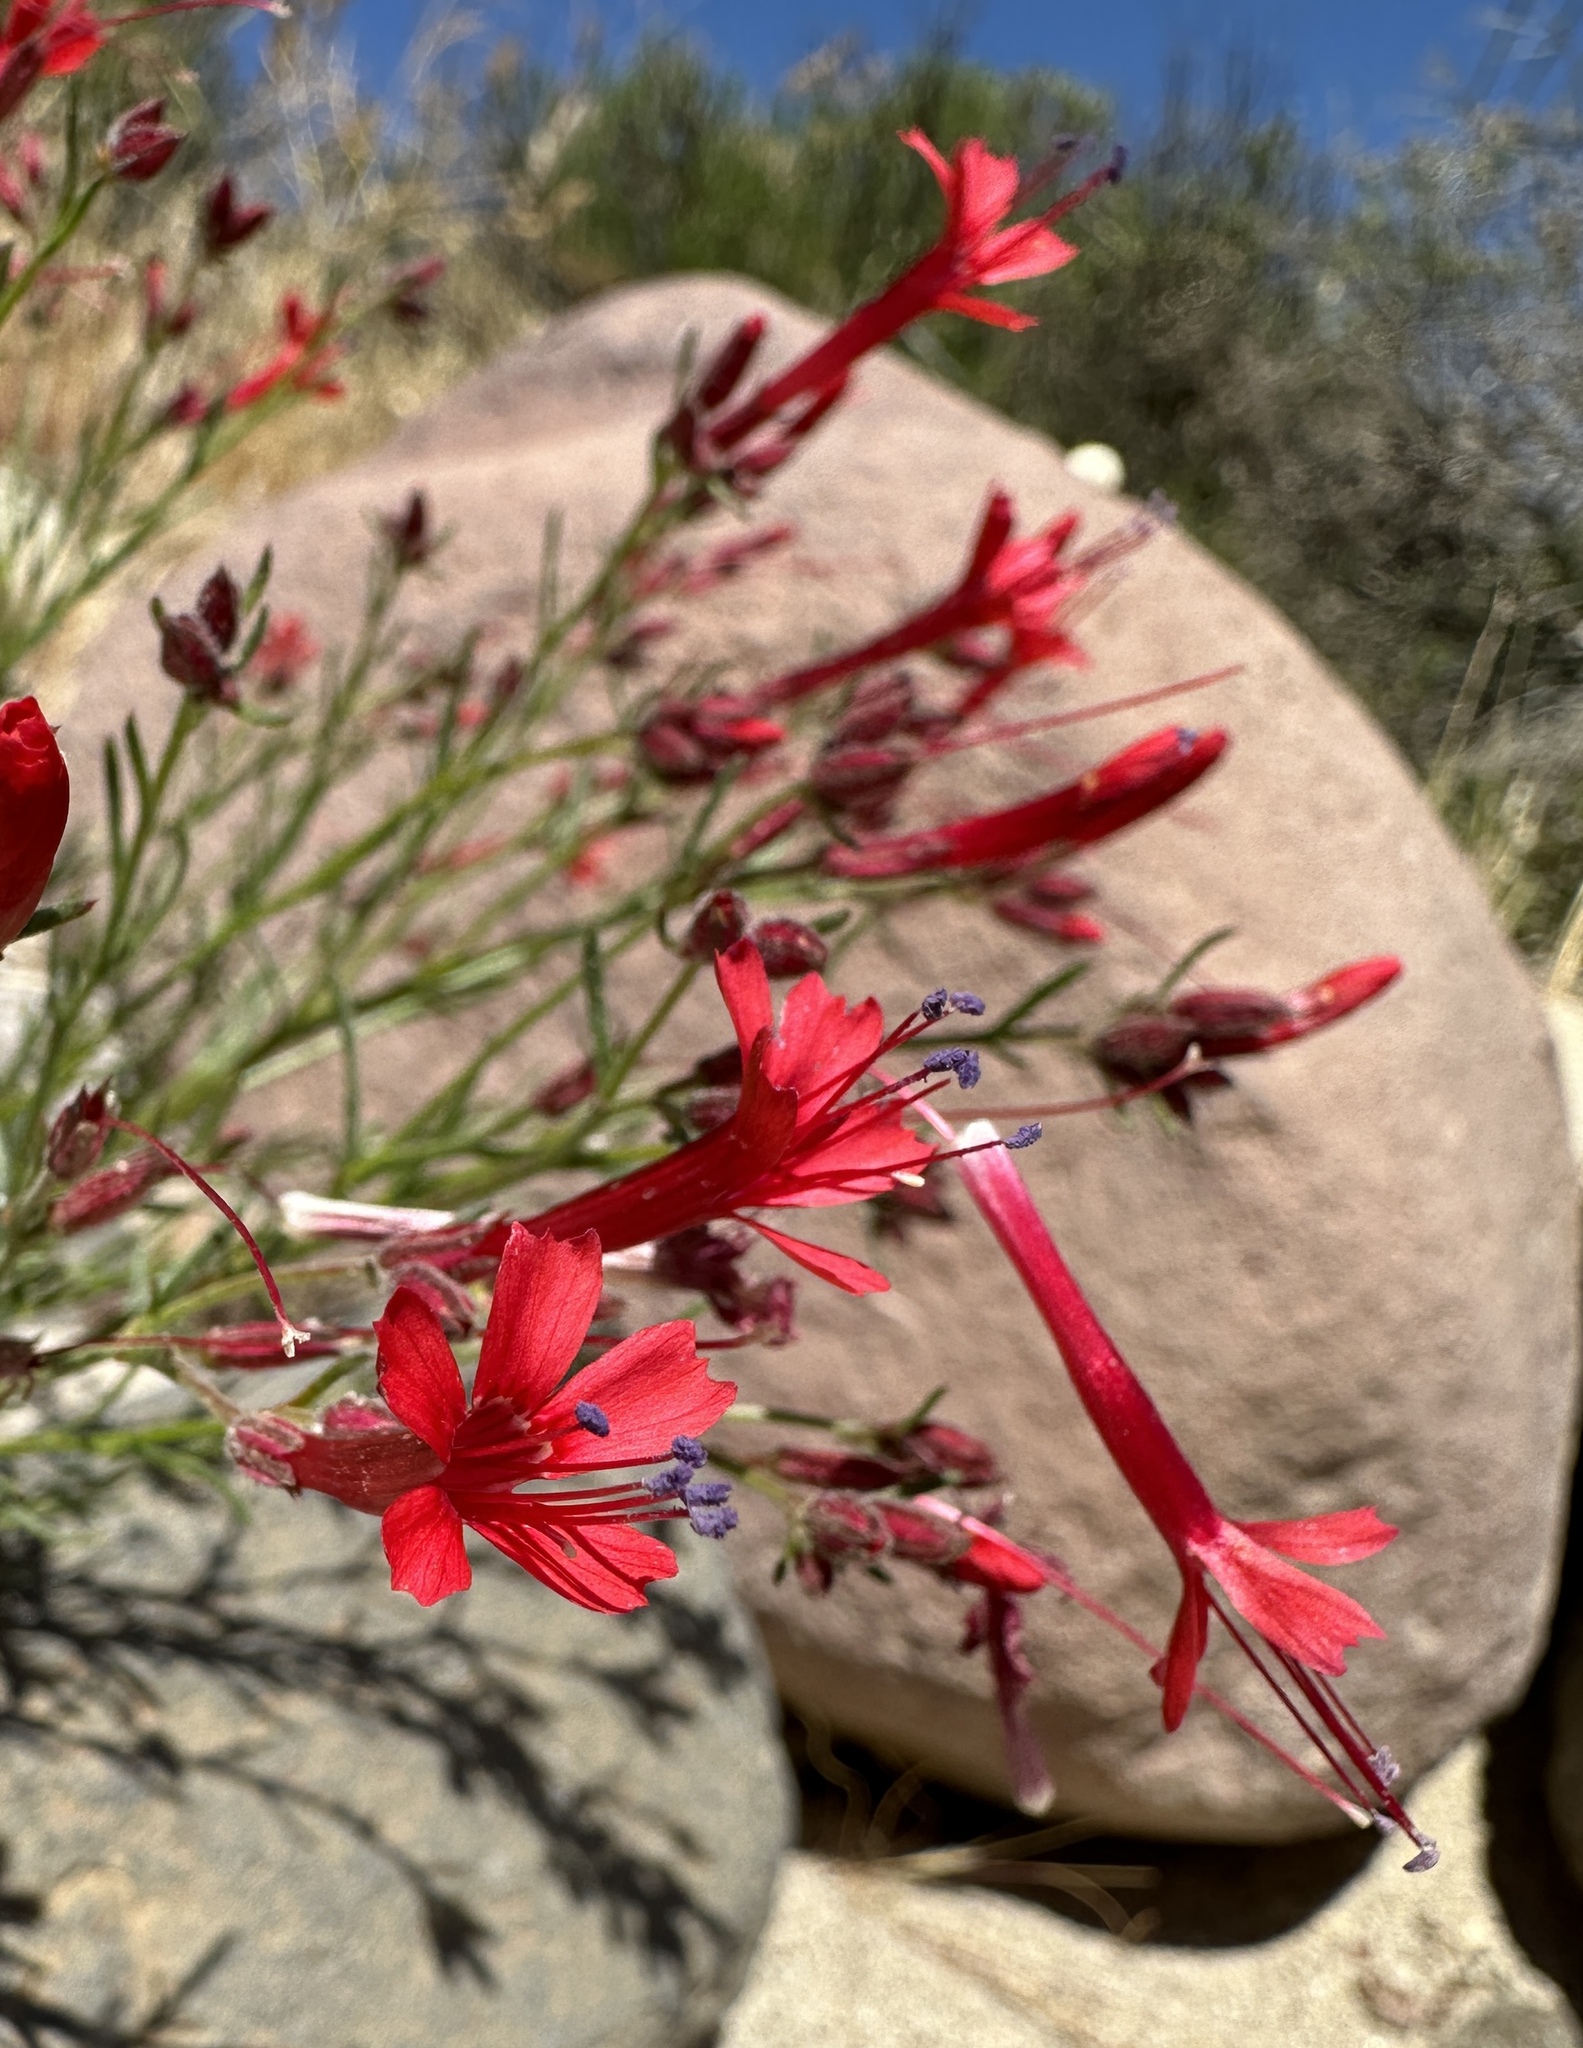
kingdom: Plantae
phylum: Tracheophyta
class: Magnoliopsida
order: Ericales
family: Polemoniaceae
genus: Ipomopsis
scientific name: Ipomopsis tenuifolia
